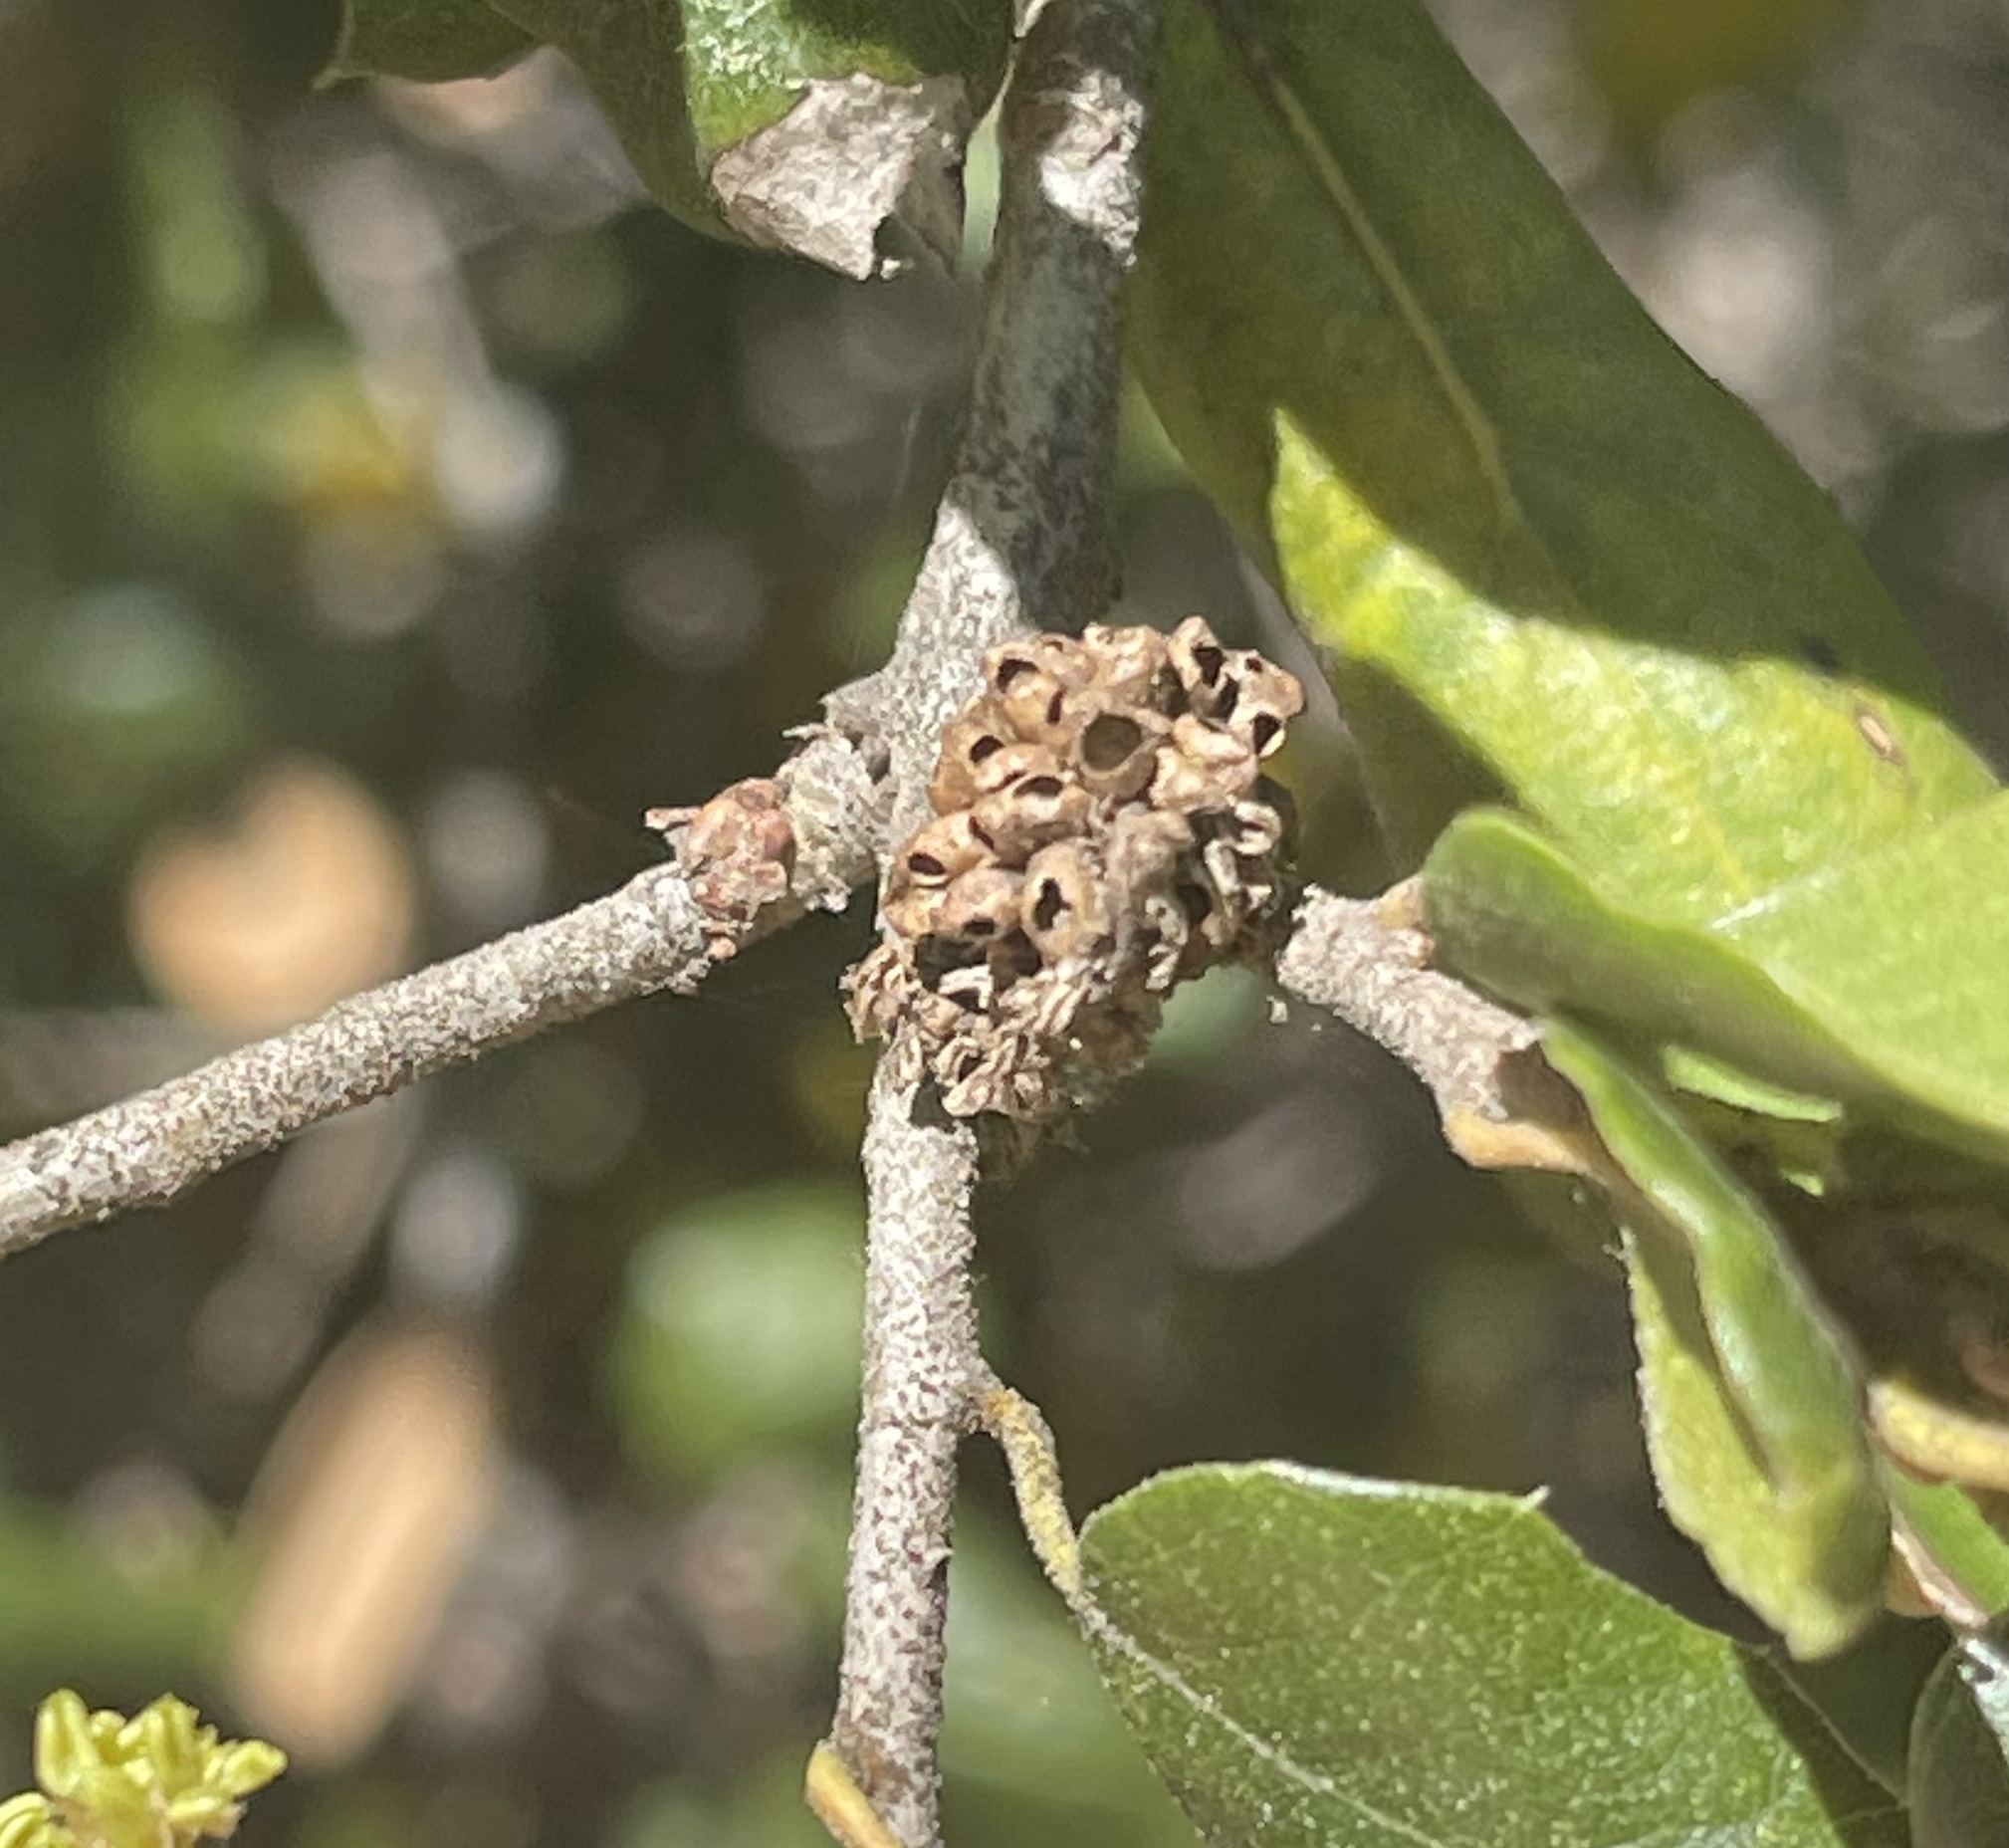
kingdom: Animalia
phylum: Arthropoda
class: Insecta
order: Hymenoptera
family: Cynipidae
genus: Callirhytis
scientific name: Callirhytis
